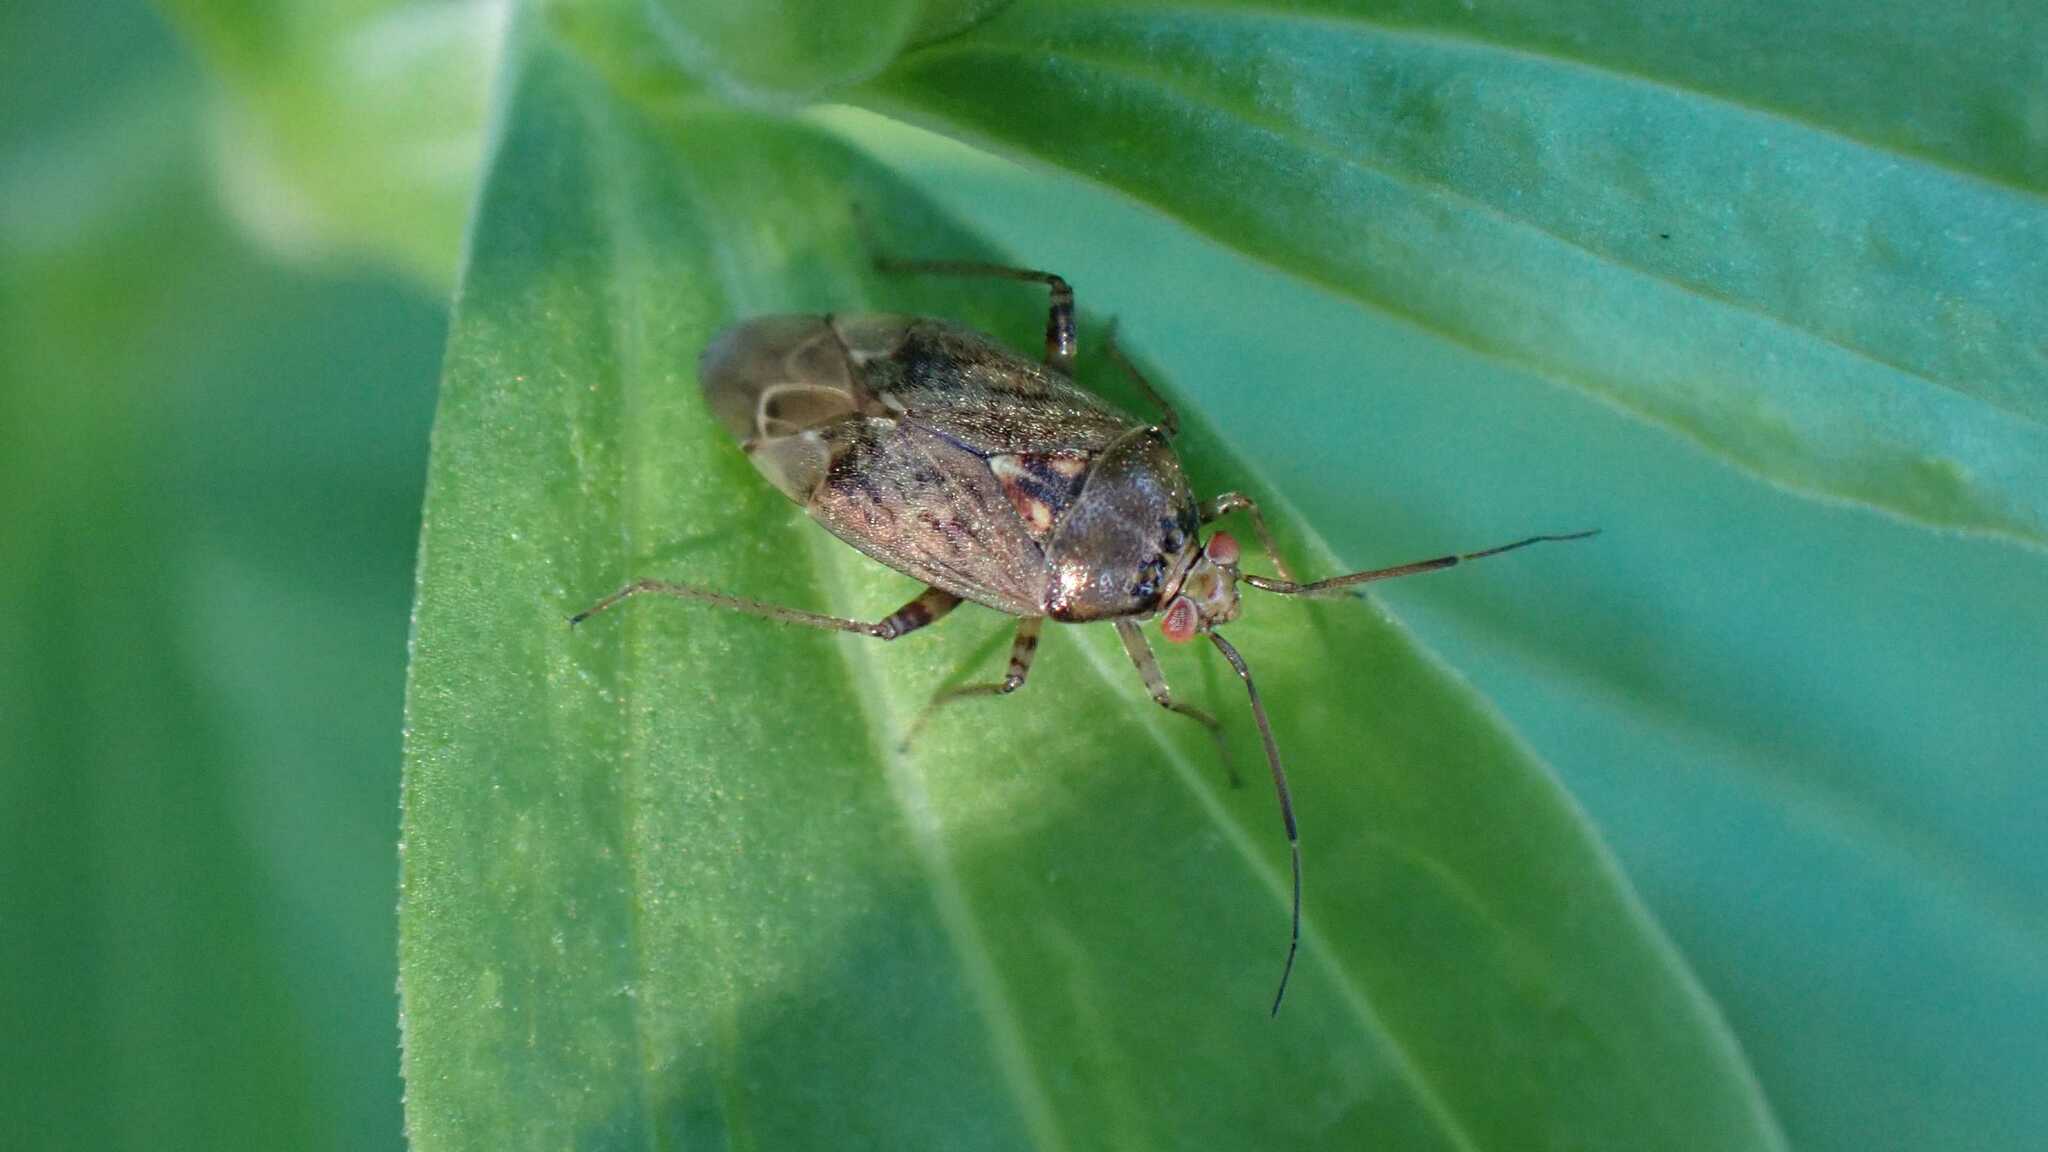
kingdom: Animalia
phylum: Arthropoda
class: Insecta
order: Hemiptera
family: Miridae
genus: Lygus
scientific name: Lygus rugulipennis
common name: European tarnished plant bug
